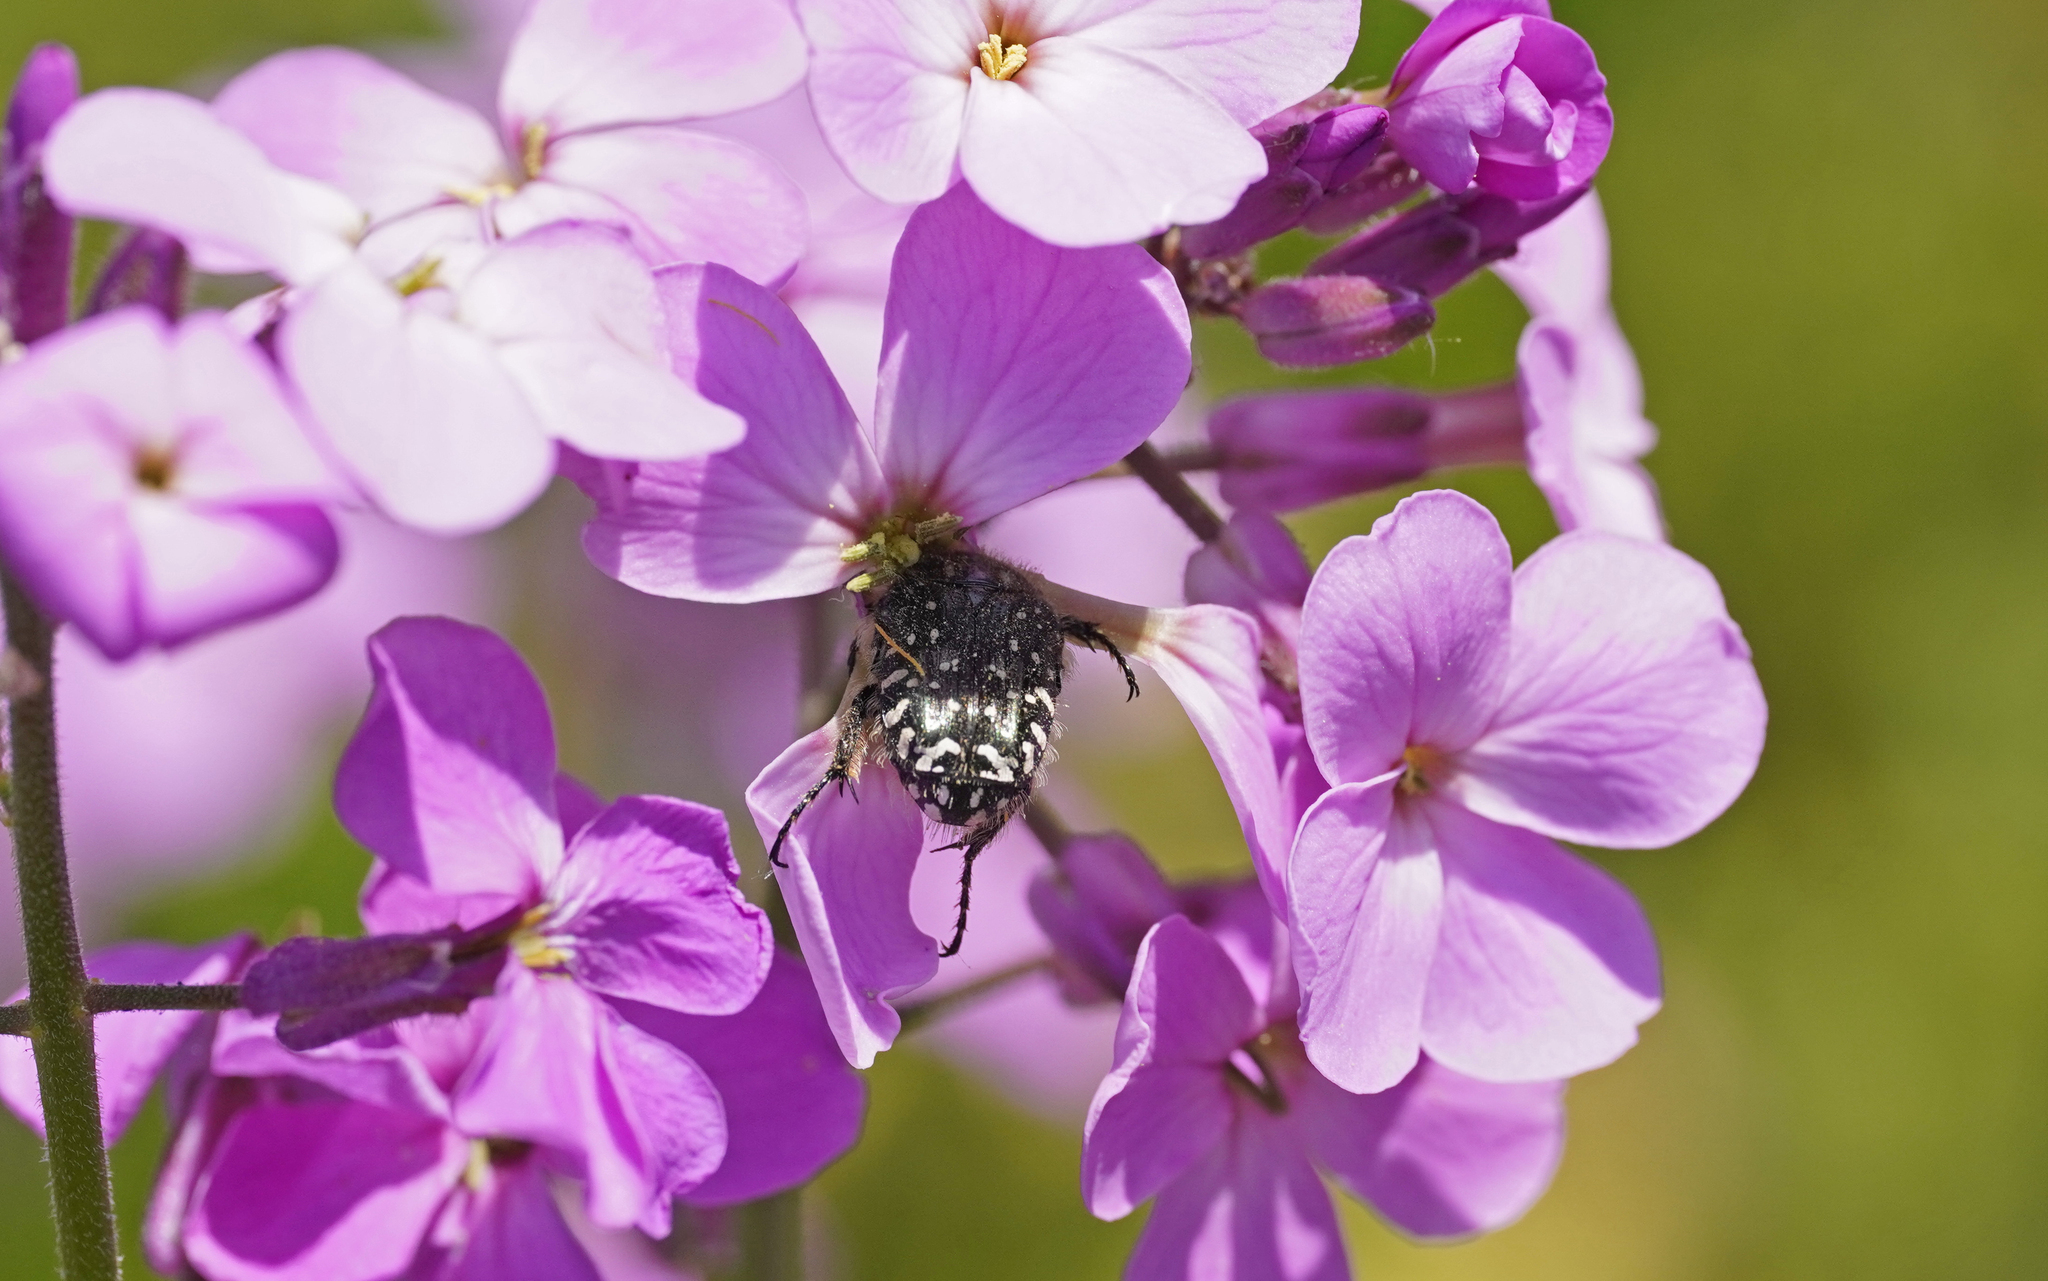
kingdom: Animalia
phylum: Arthropoda
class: Insecta
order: Coleoptera
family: Scarabaeidae
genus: Oxythyrea
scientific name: Oxythyrea funesta
